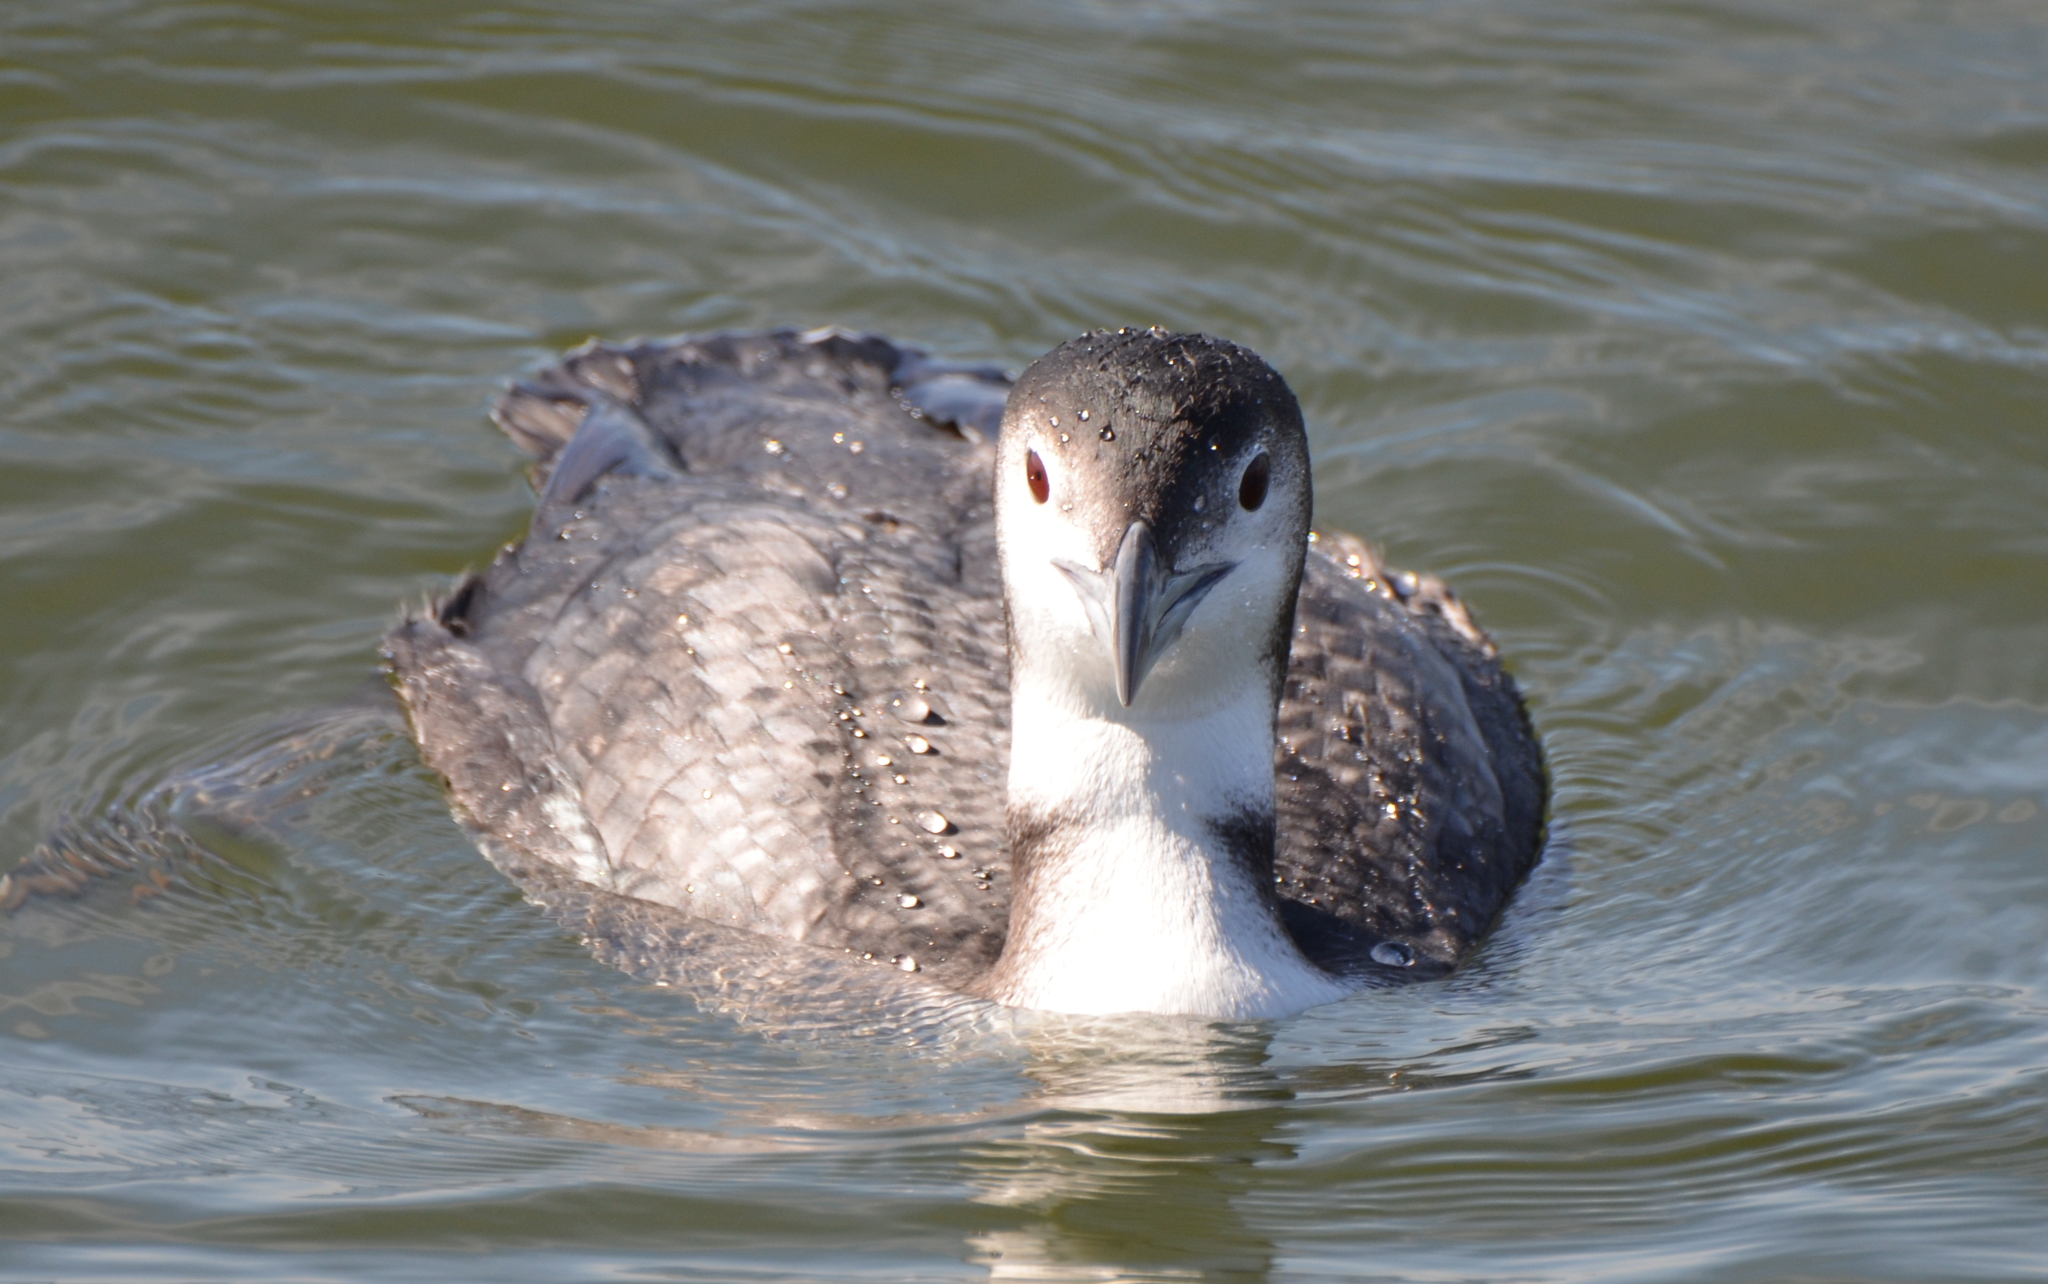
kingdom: Animalia
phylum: Chordata
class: Aves
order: Gaviiformes
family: Gaviidae
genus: Gavia
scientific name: Gavia immer
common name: Common loon
